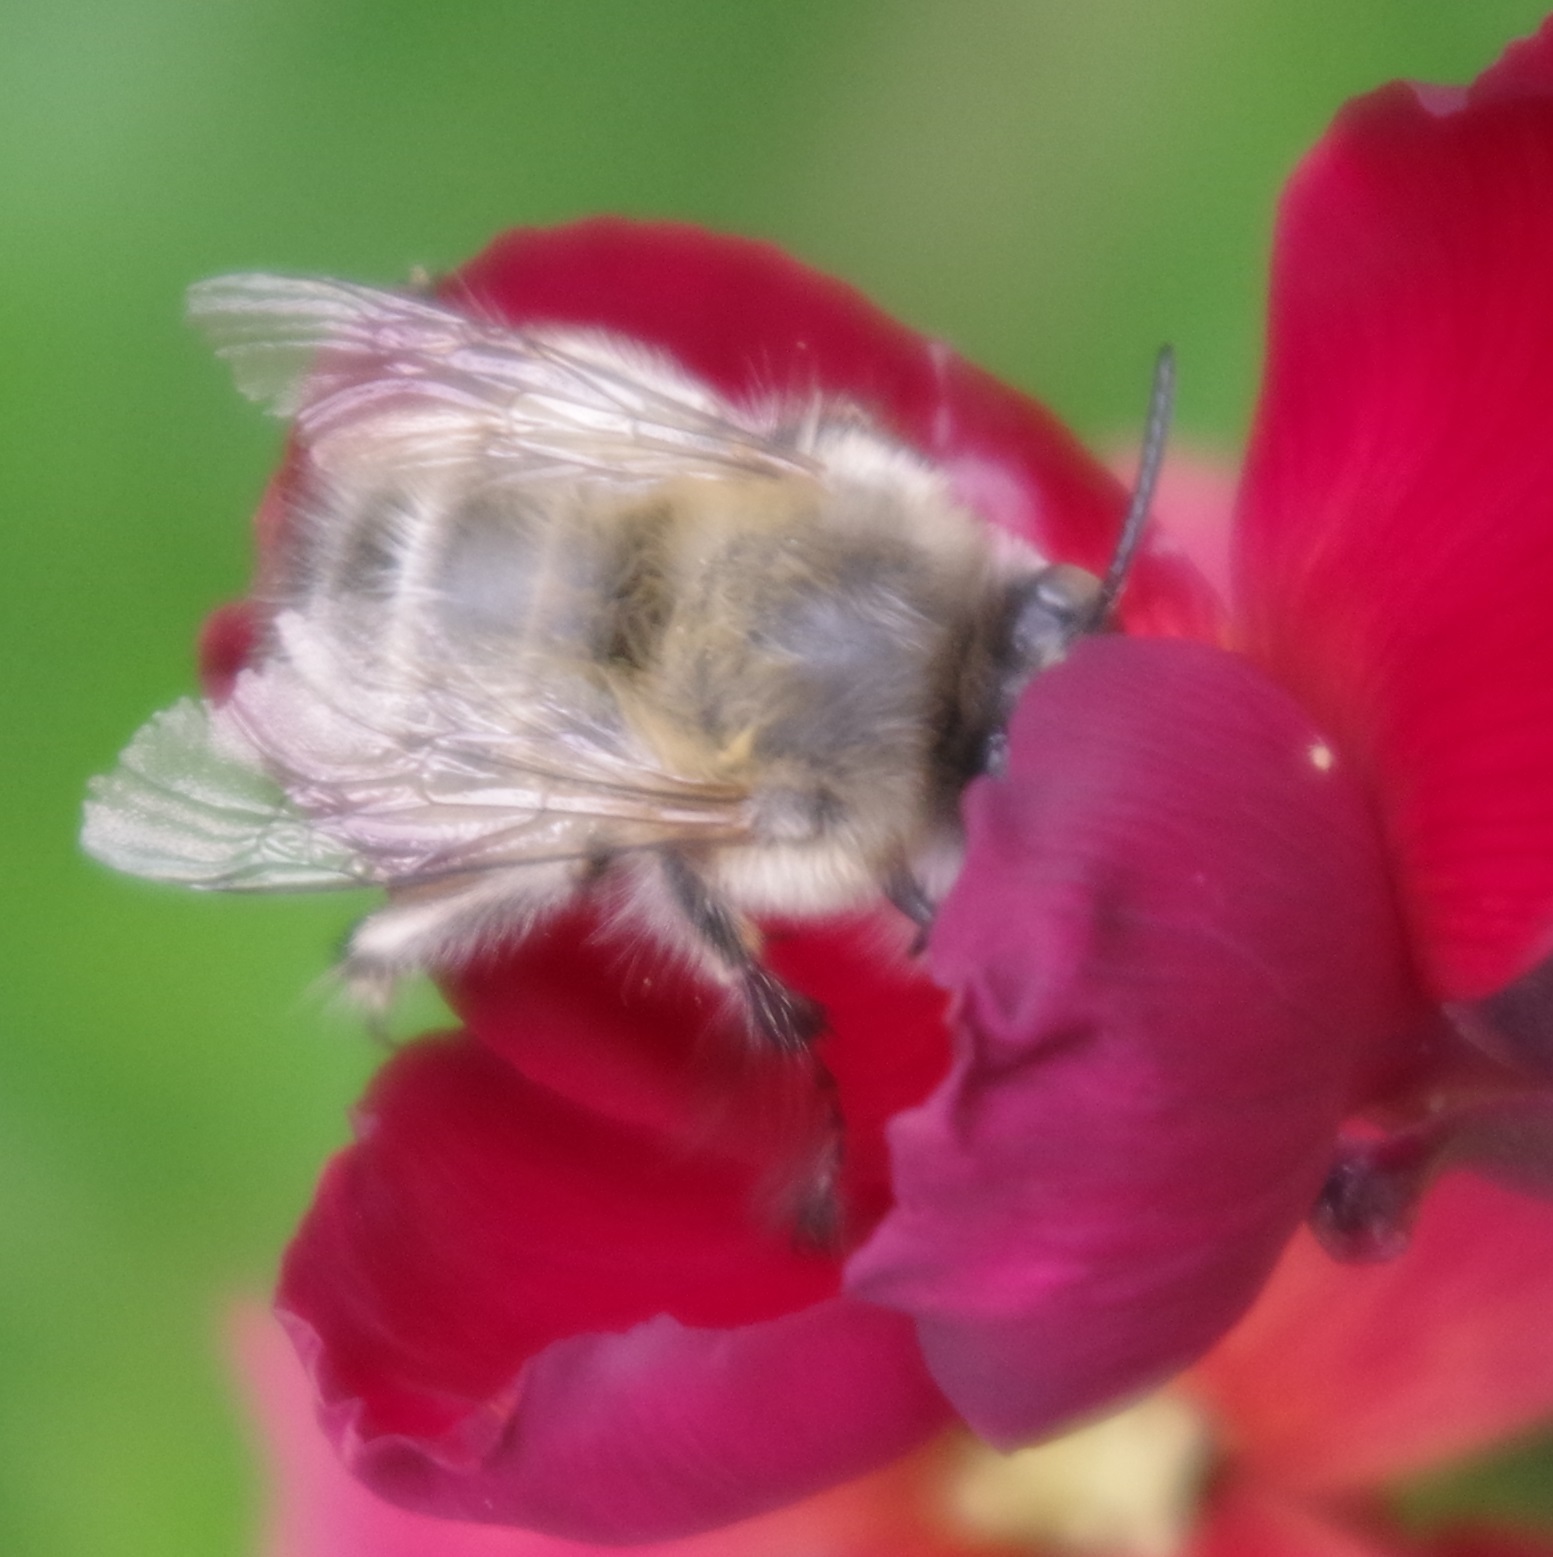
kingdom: Animalia
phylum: Arthropoda
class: Insecta
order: Hymenoptera
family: Apidae
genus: Anthophora
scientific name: Anthophora plumipes
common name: Hairy-footed flower bee
